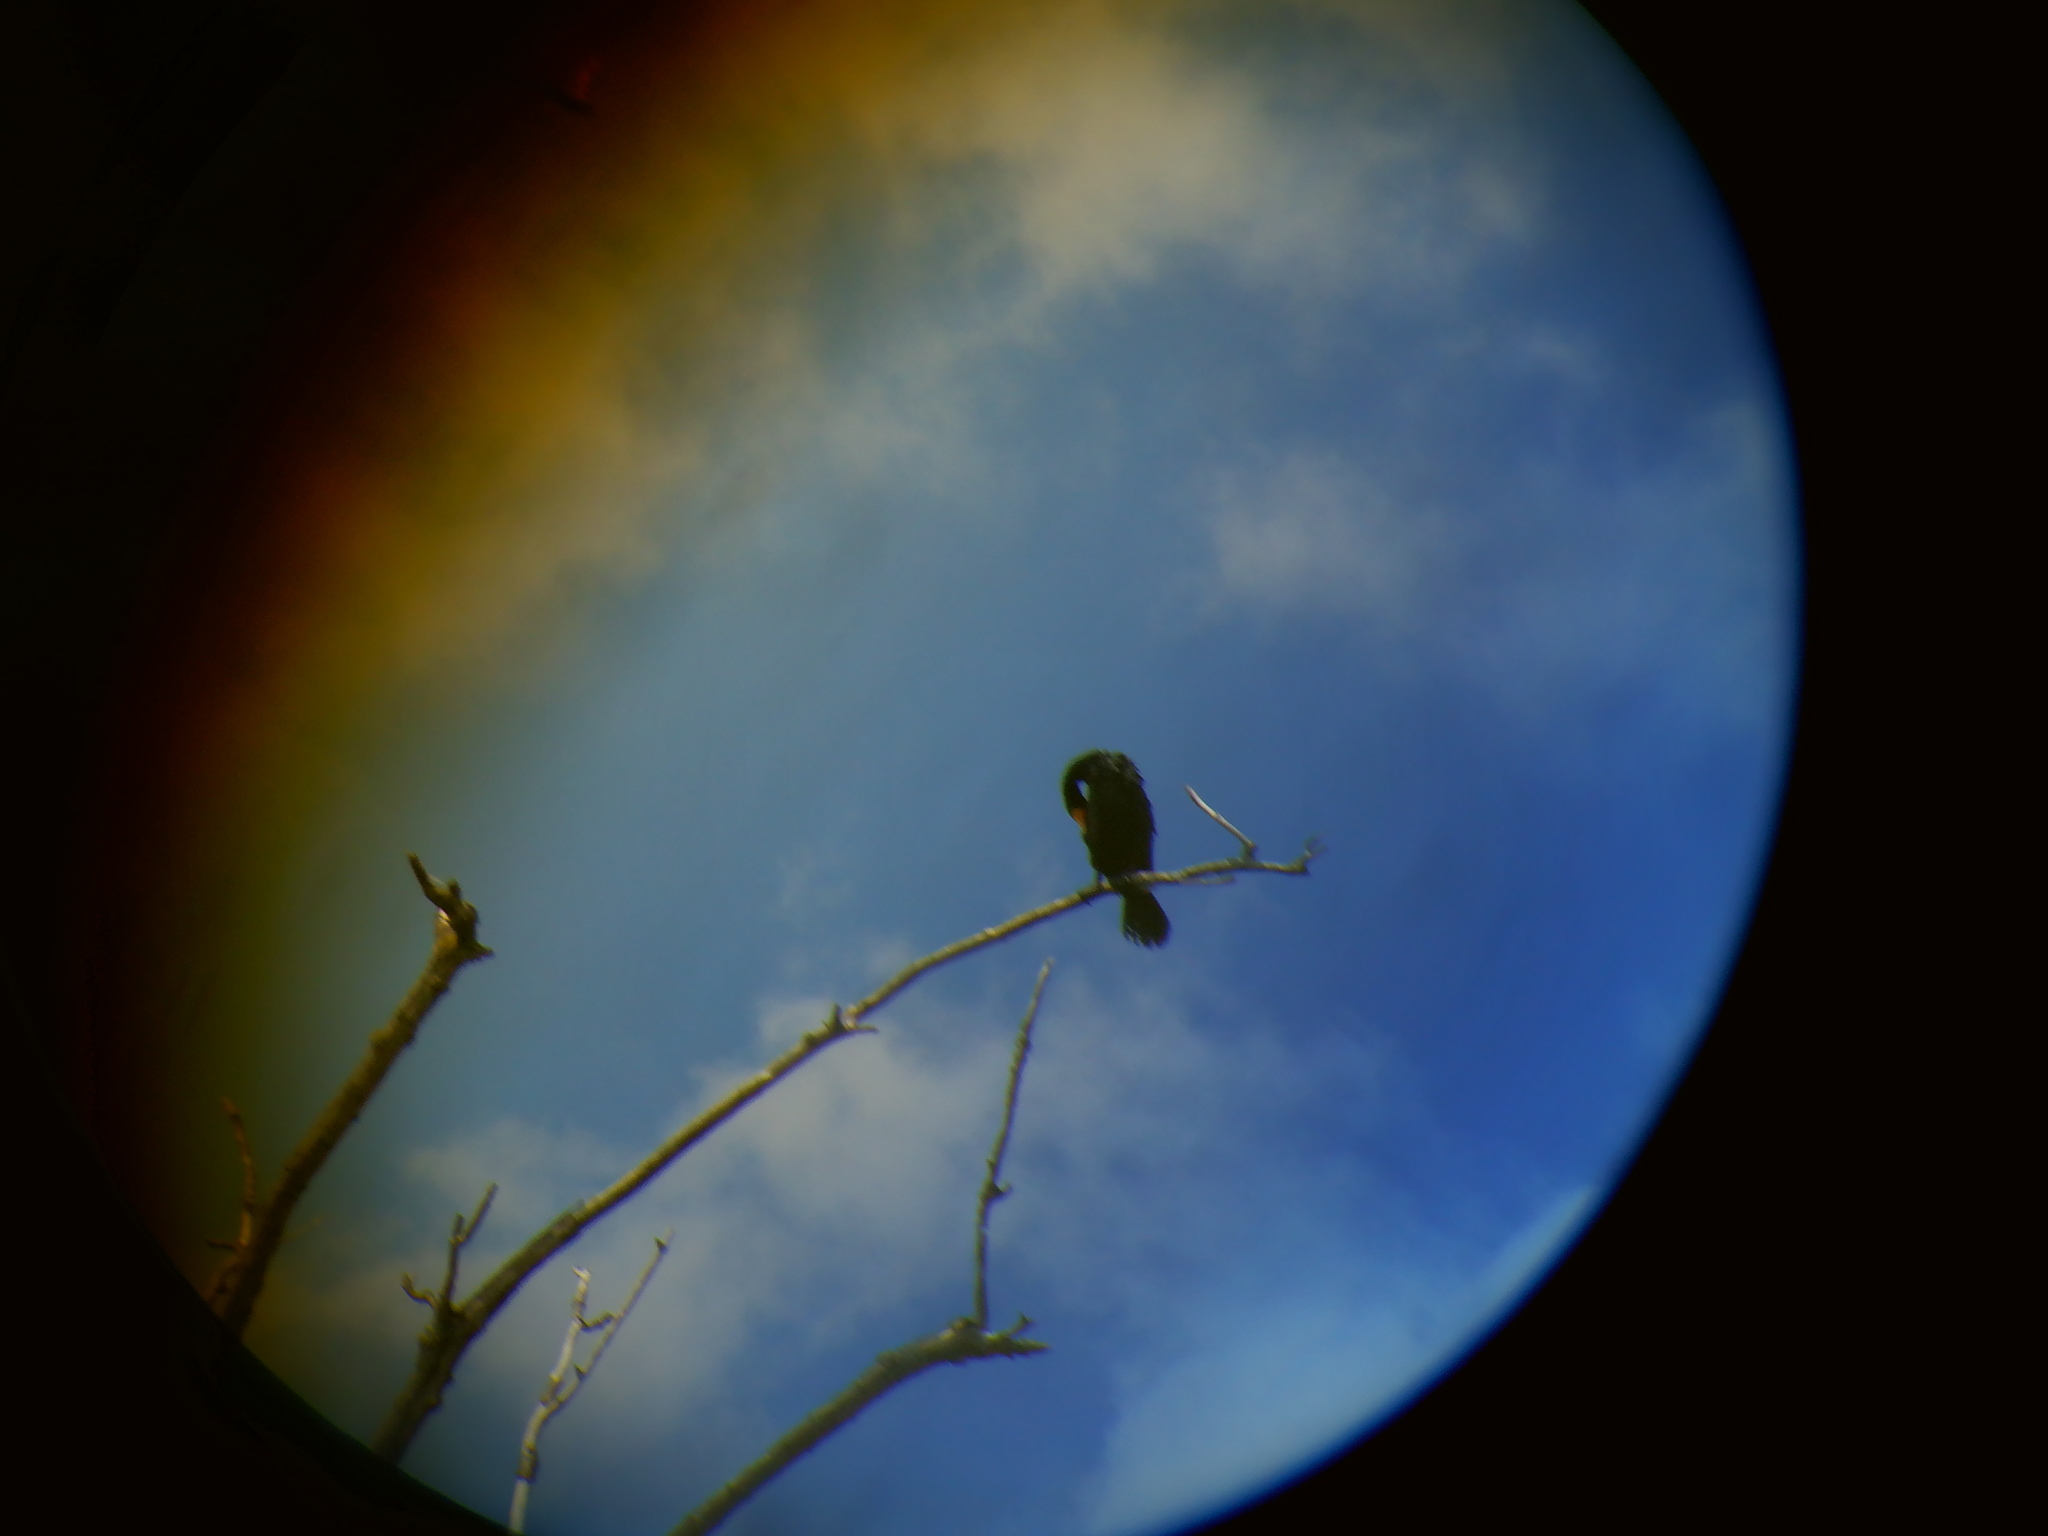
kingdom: Animalia
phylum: Chordata
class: Aves
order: Suliformes
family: Phalacrocoracidae
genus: Phalacrocorax
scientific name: Phalacrocorax auritus
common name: Double-crested cormorant
